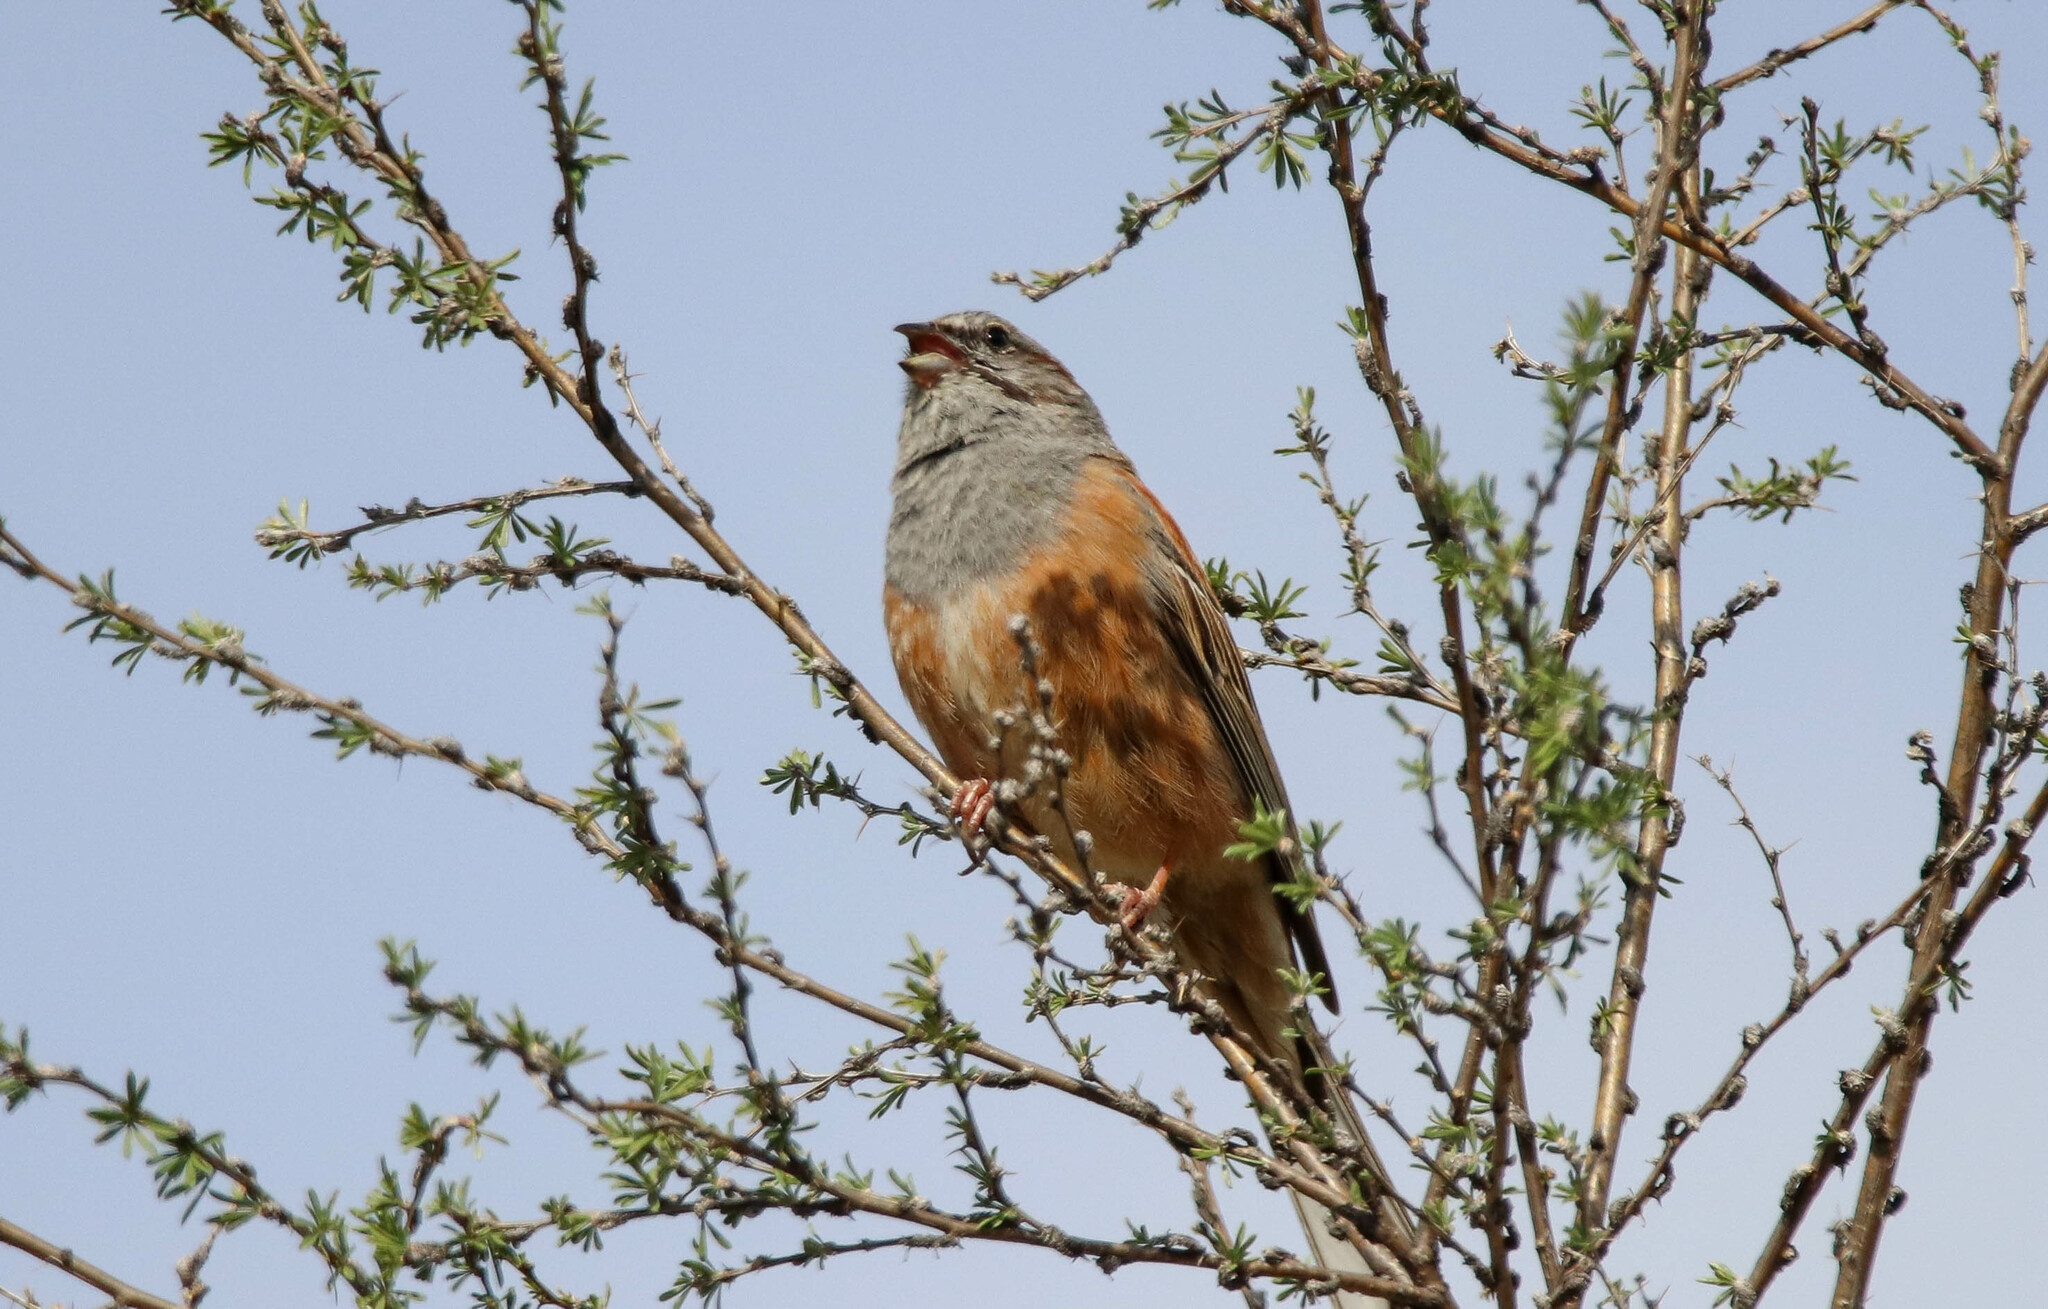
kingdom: Animalia
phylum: Chordata
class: Aves
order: Passeriformes
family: Emberizidae
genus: Emberiza
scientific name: Emberiza godlewskii
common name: Godlewski's bunting
